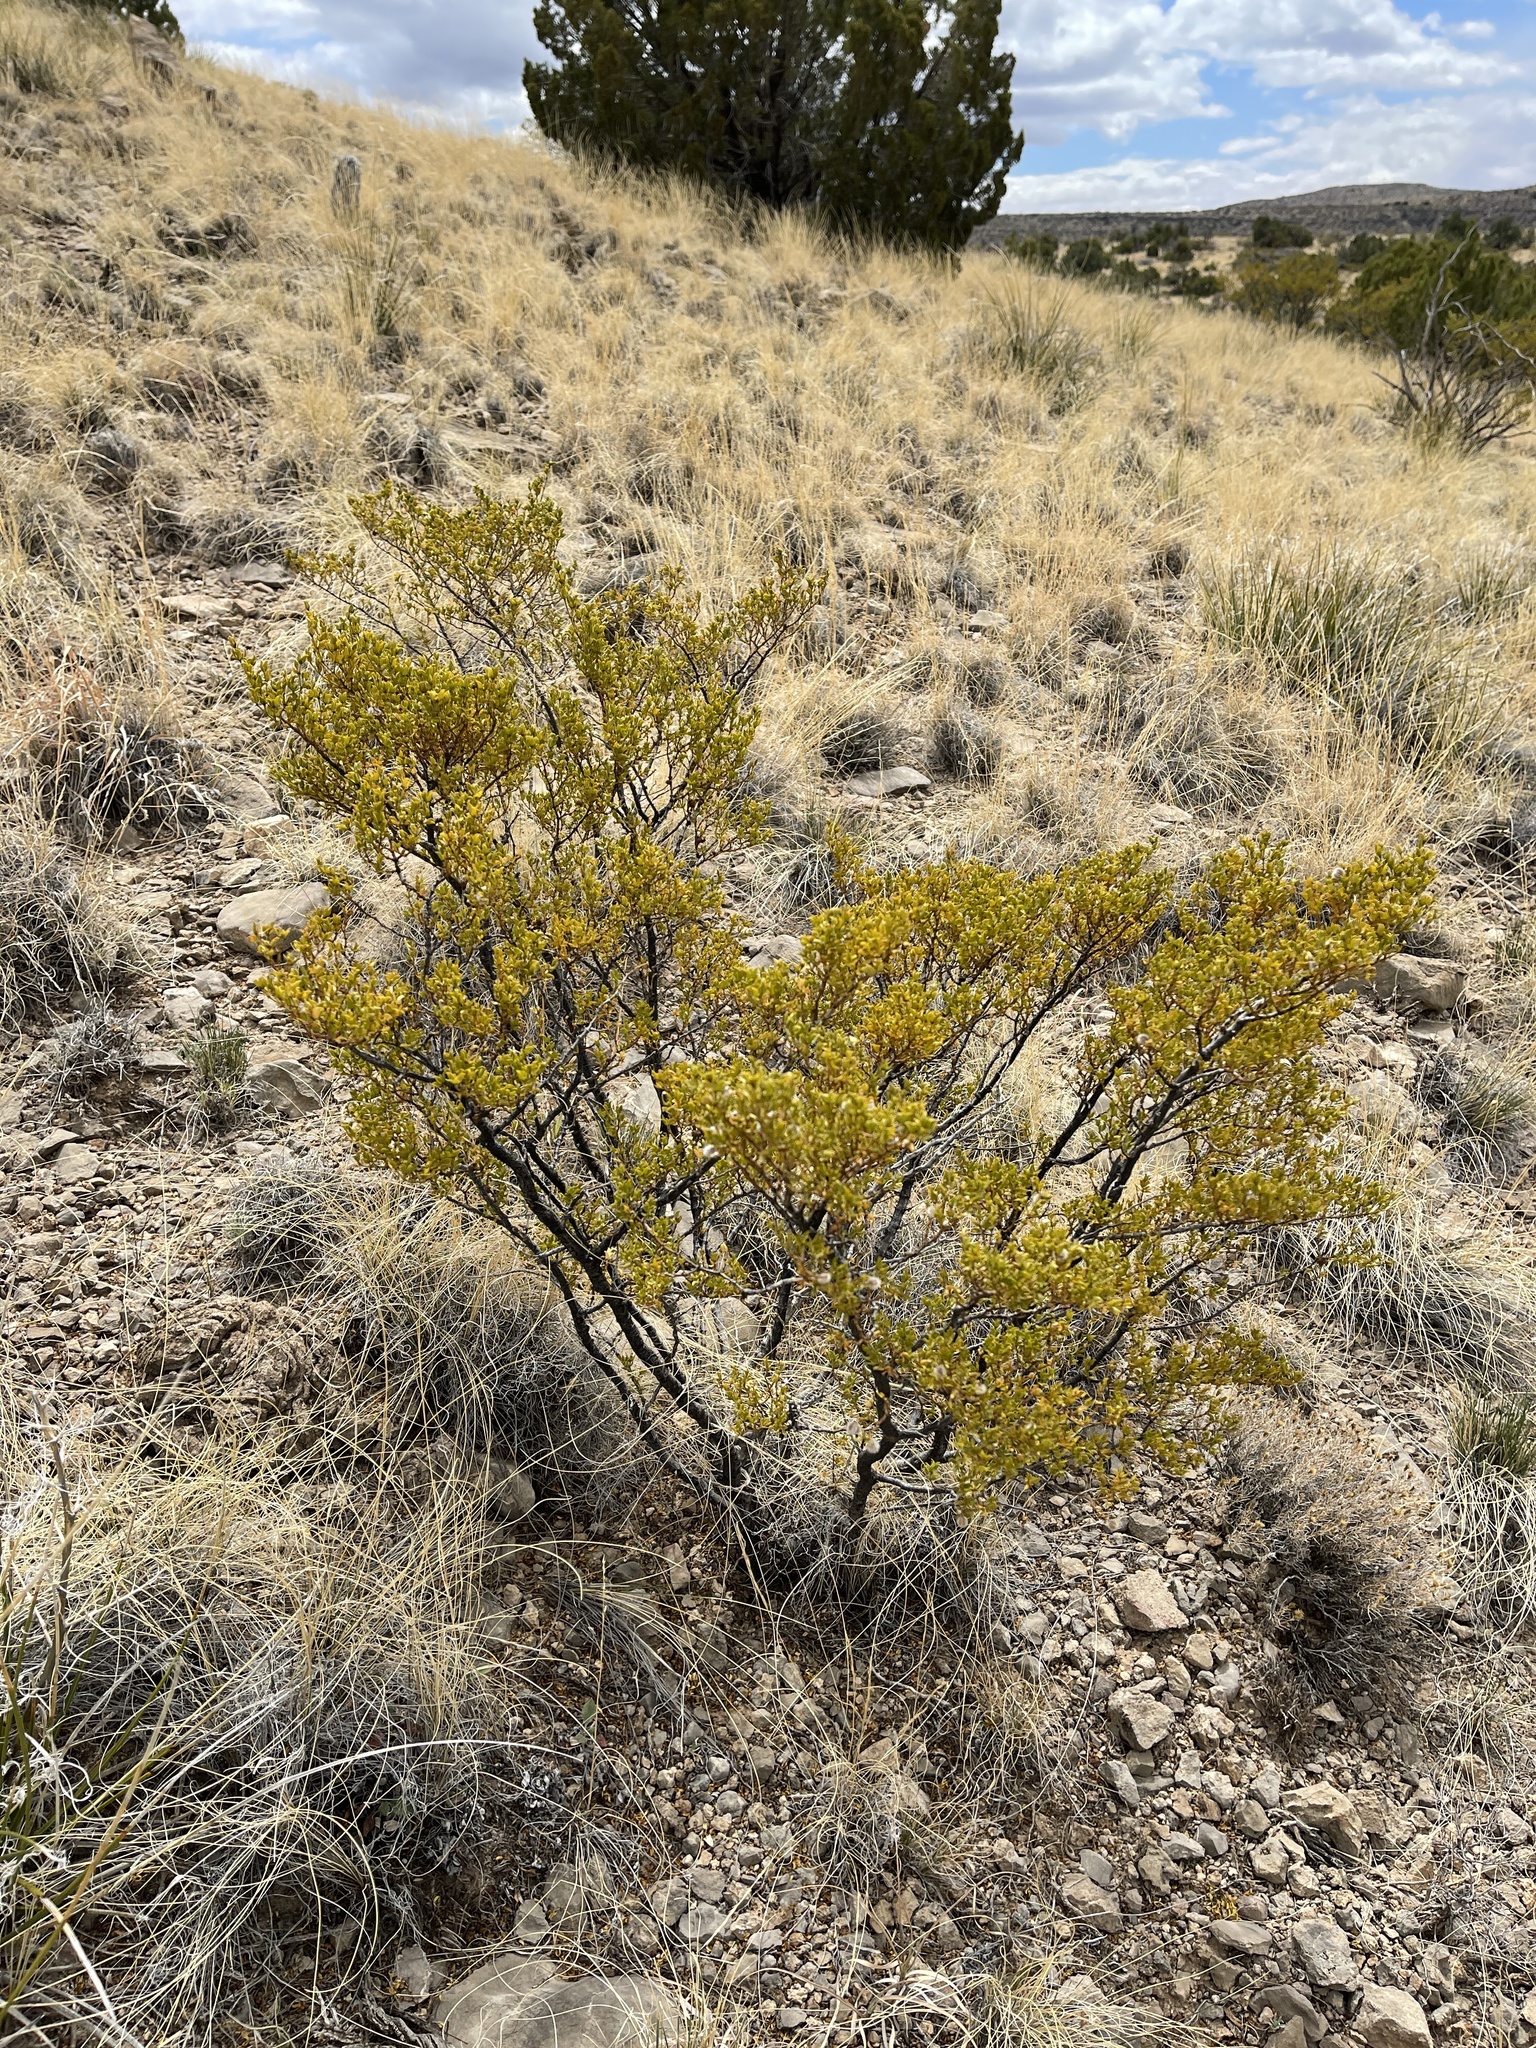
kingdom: Plantae
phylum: Tracheophyta
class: Magnoliopsida
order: Zygophyllales
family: Zygophyllaceae
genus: Larrea
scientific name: Larrea tridentata
